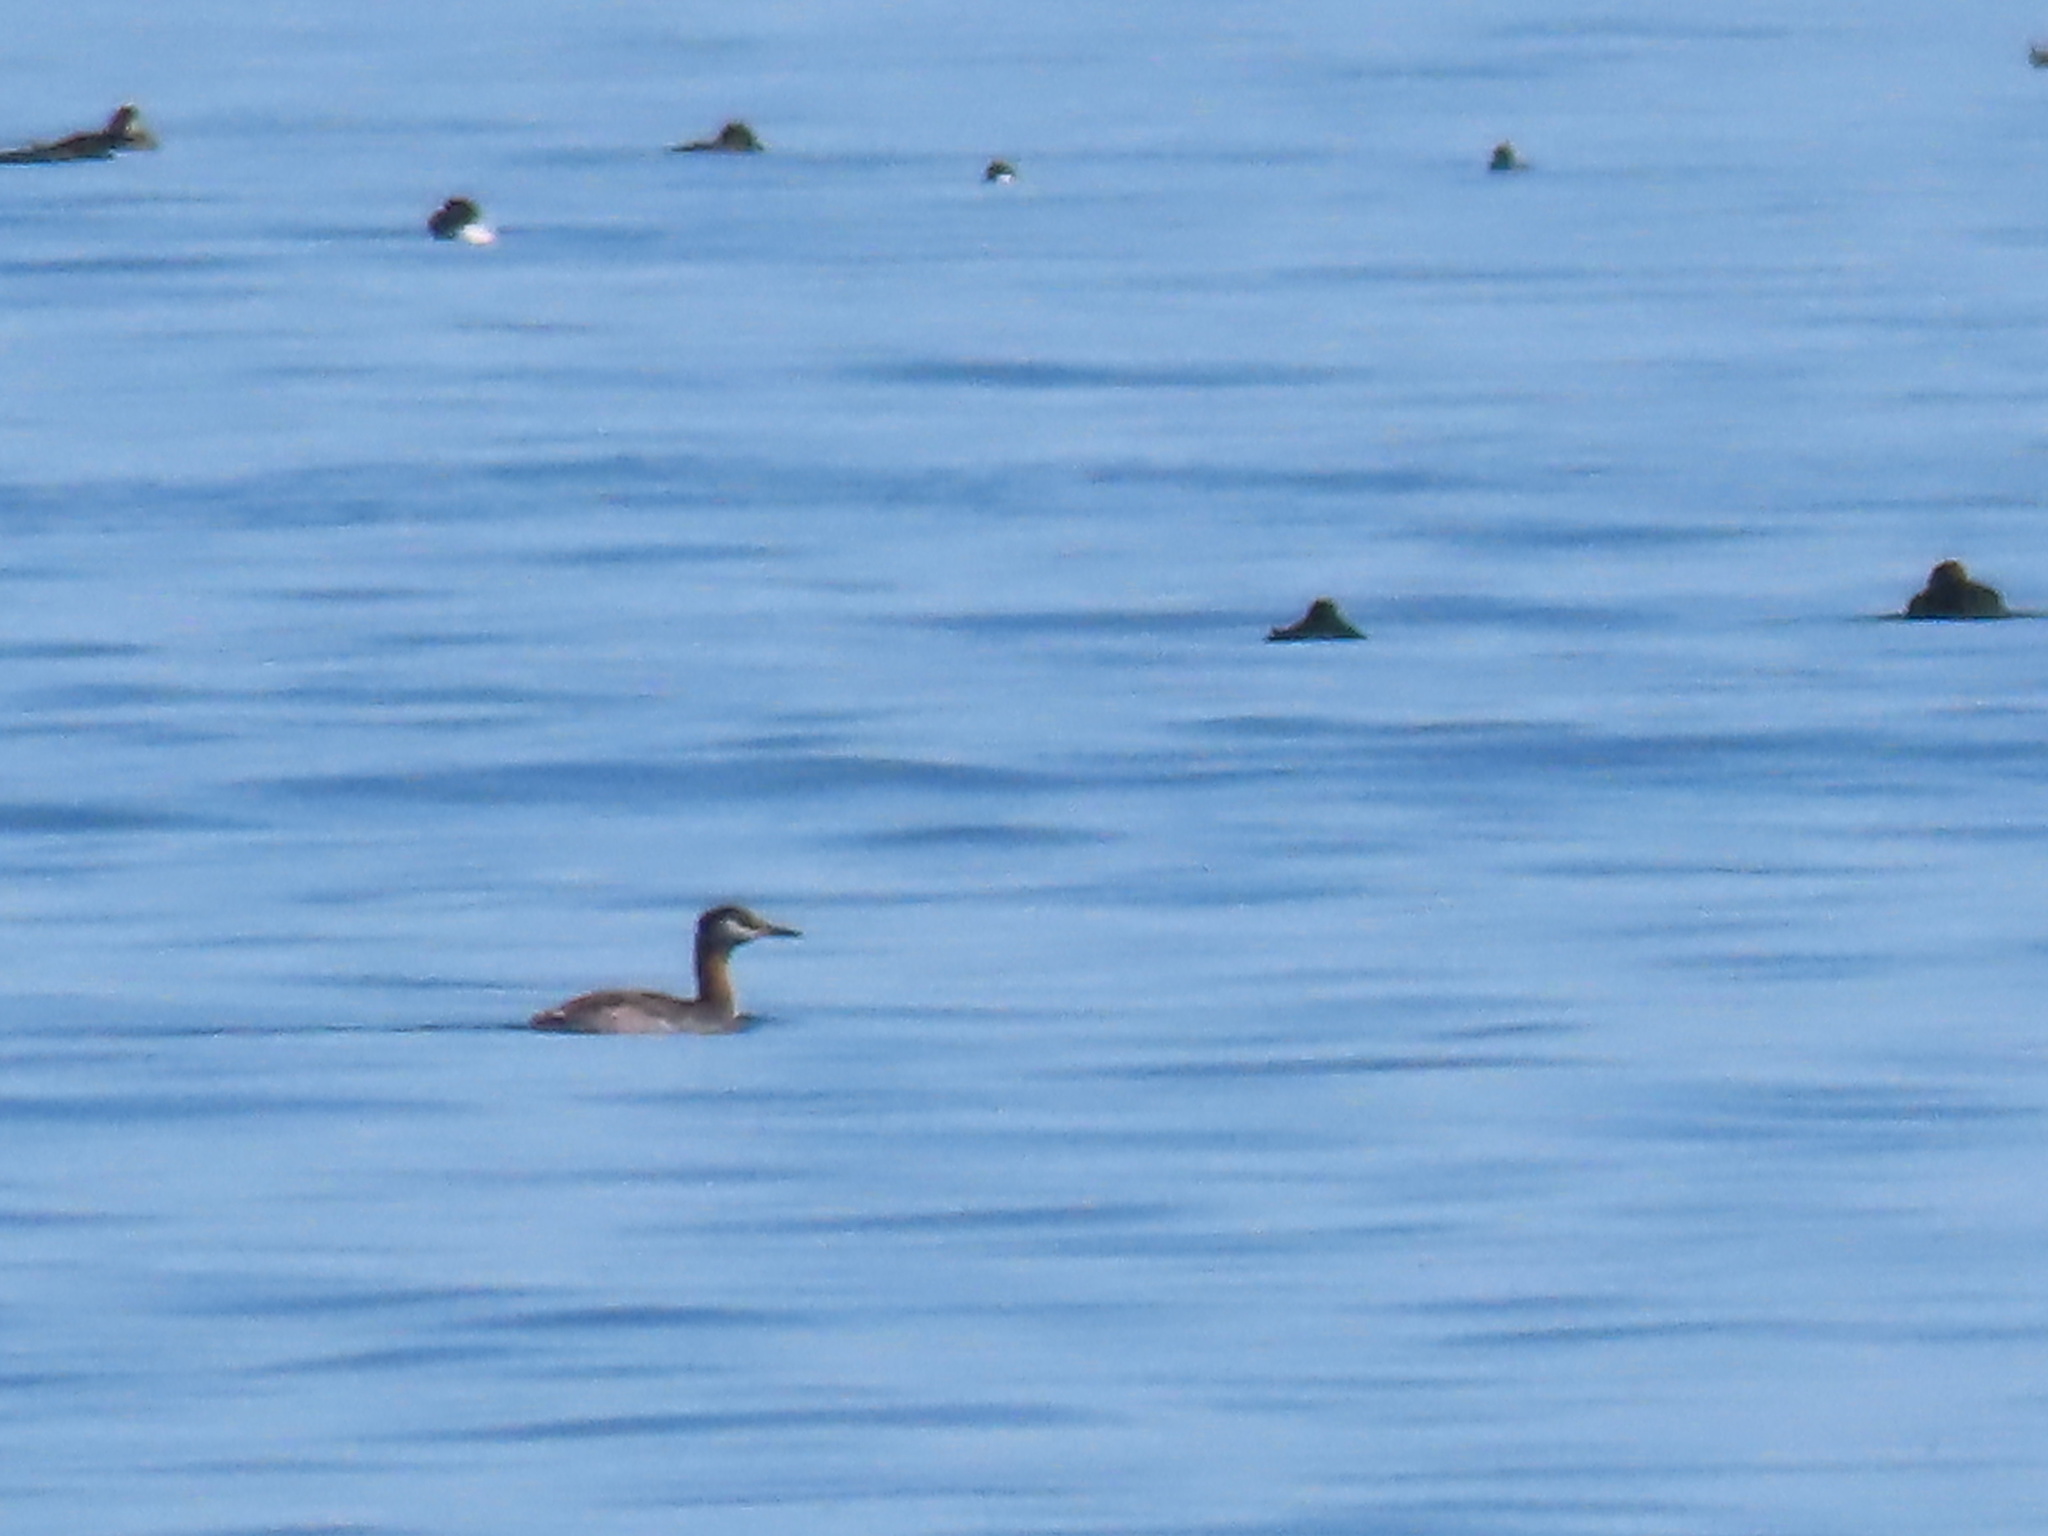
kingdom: Animalia
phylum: Chordata
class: Aves
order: Podicipediformes
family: Podicipedidae
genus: Podiceps
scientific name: Podiceps grisegena
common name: Red-necked grebe
